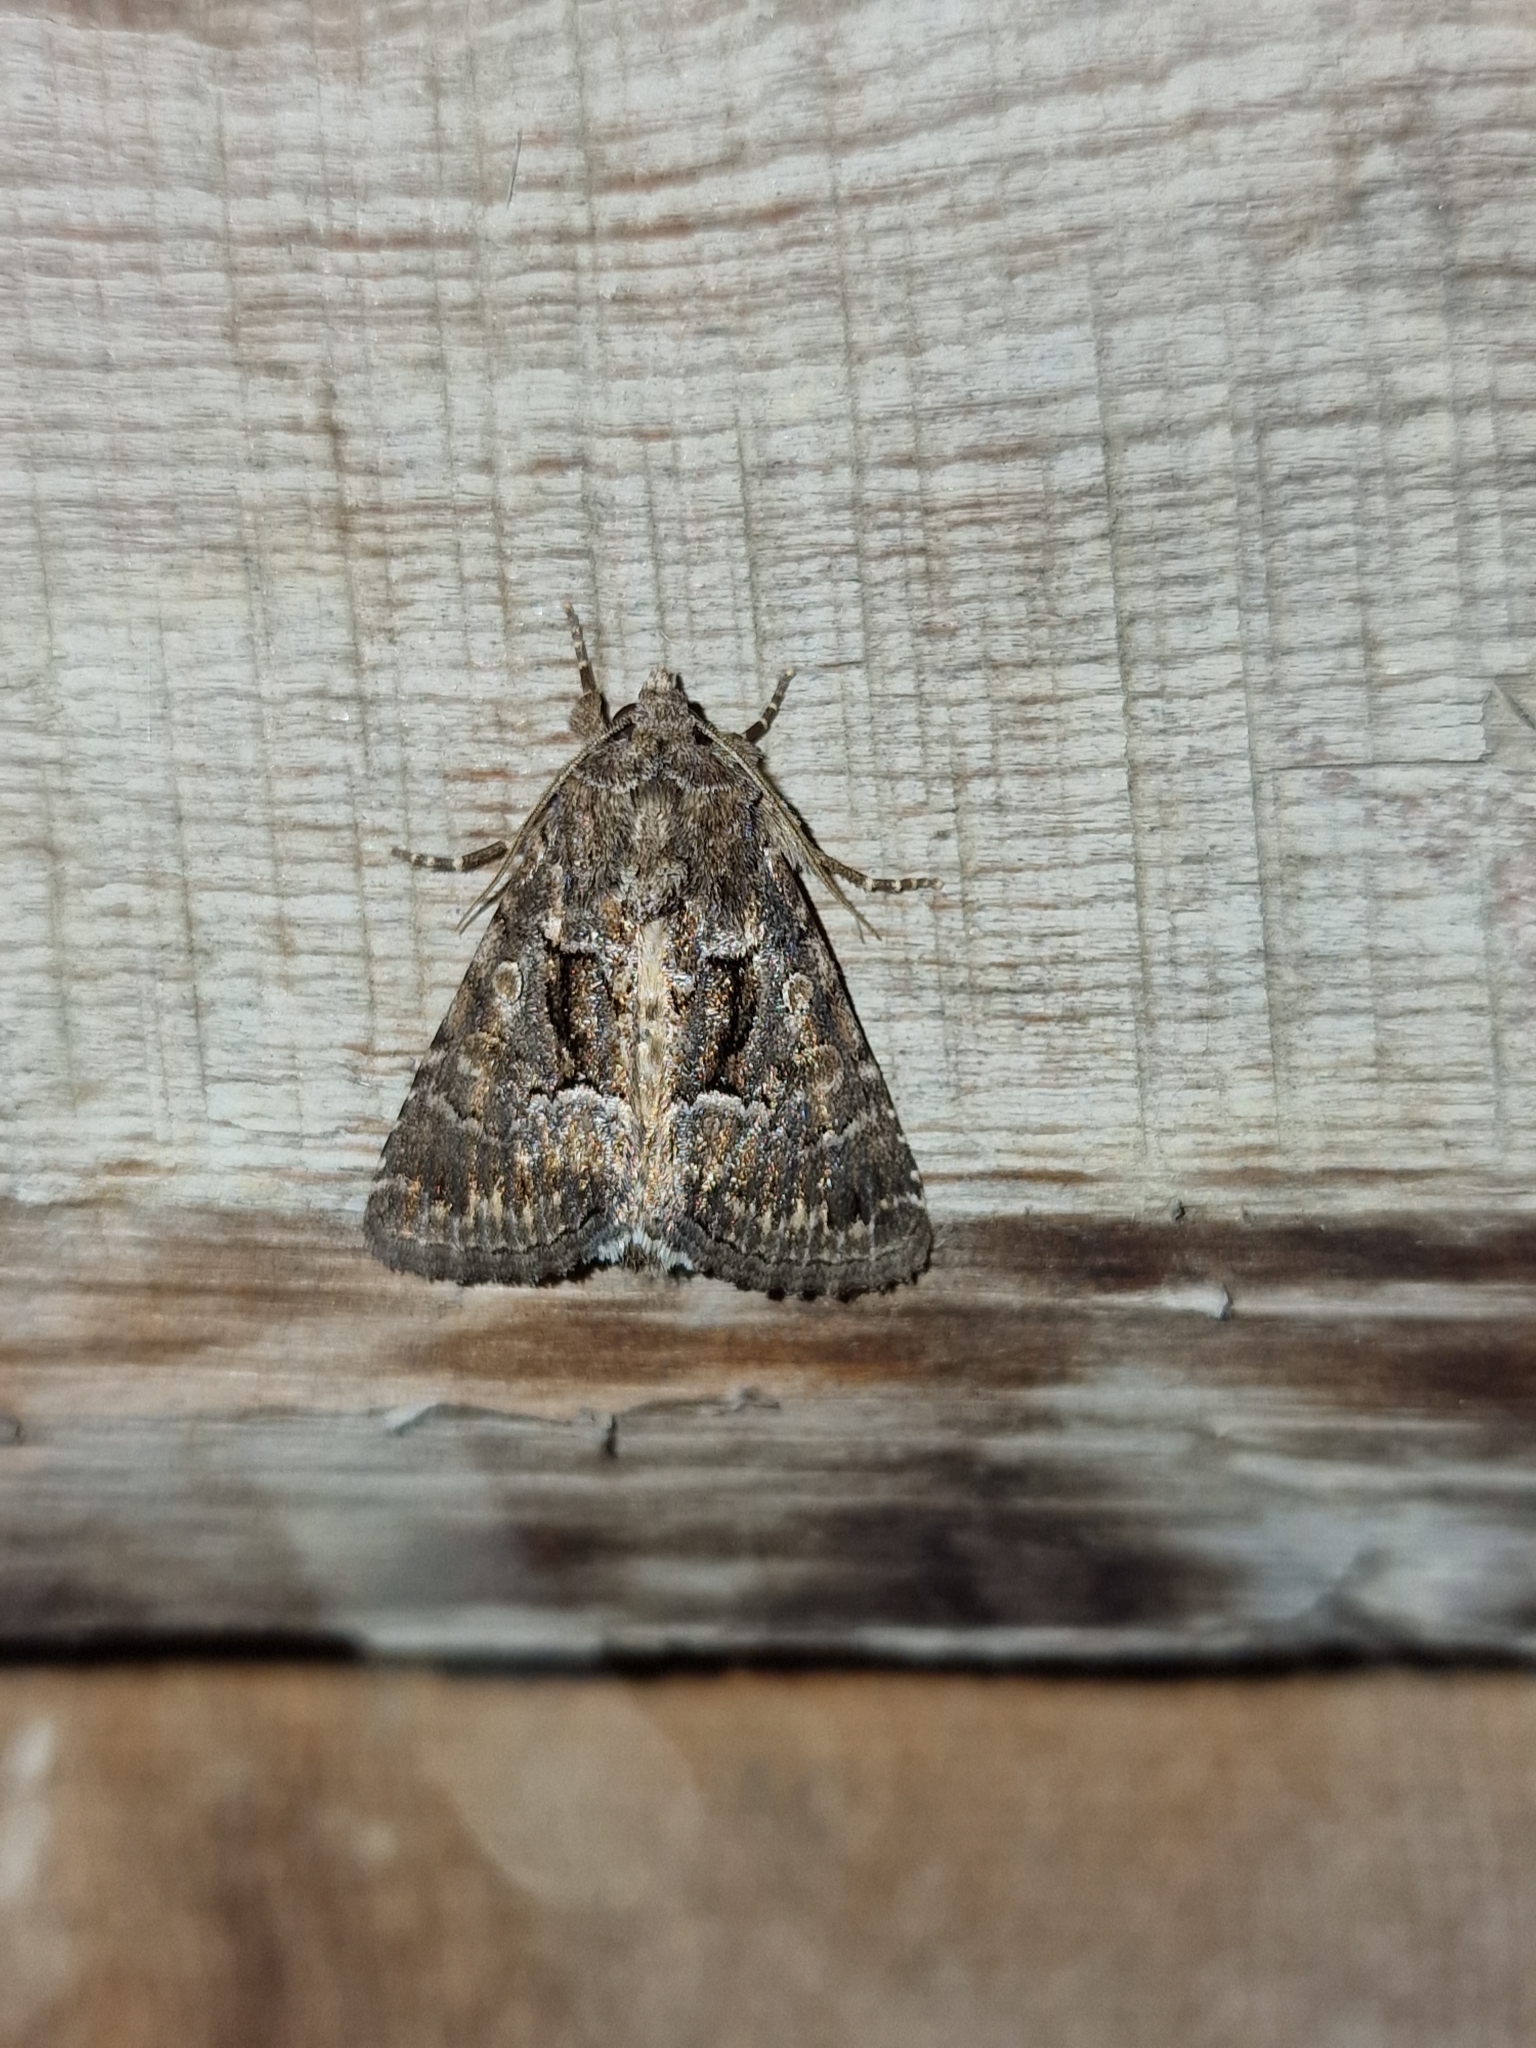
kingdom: Animalia
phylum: Arthropoda
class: Insecta
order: Lepidoptera
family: Noctuidae
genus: Thalpophila
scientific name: Thalpophila matura
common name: Straw underwing
